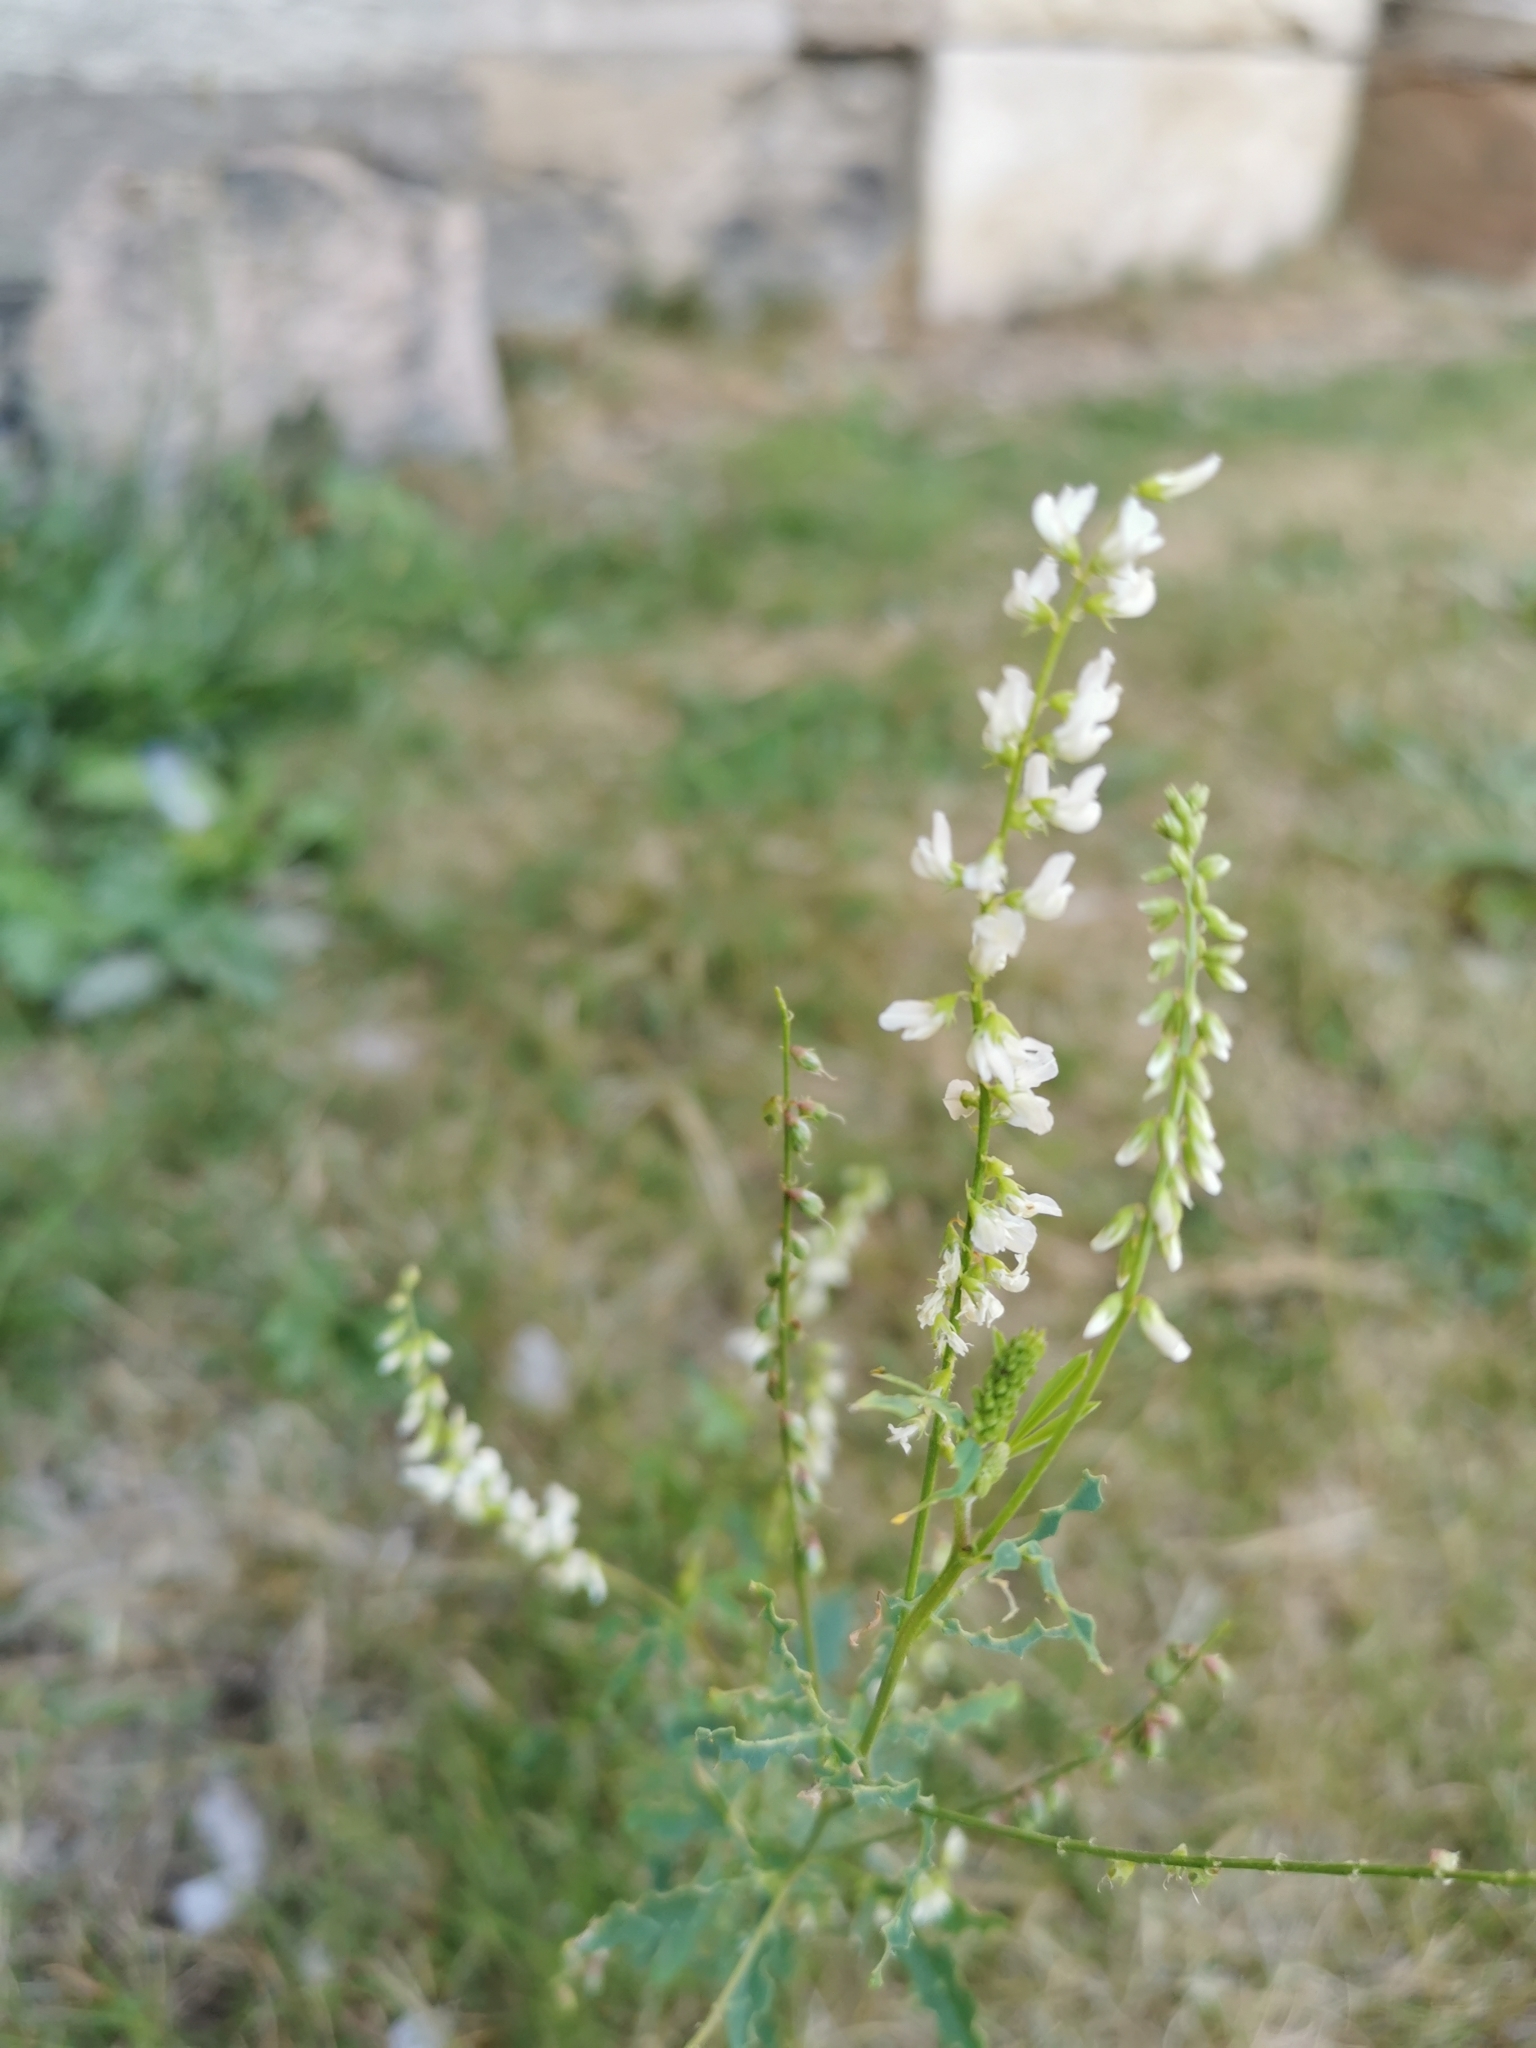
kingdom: Plantae
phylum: Tracheophyta
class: Magnoliopsida
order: Fabales
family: Fabaceae
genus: Melilotus
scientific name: Melilotus albus
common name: White melilot
